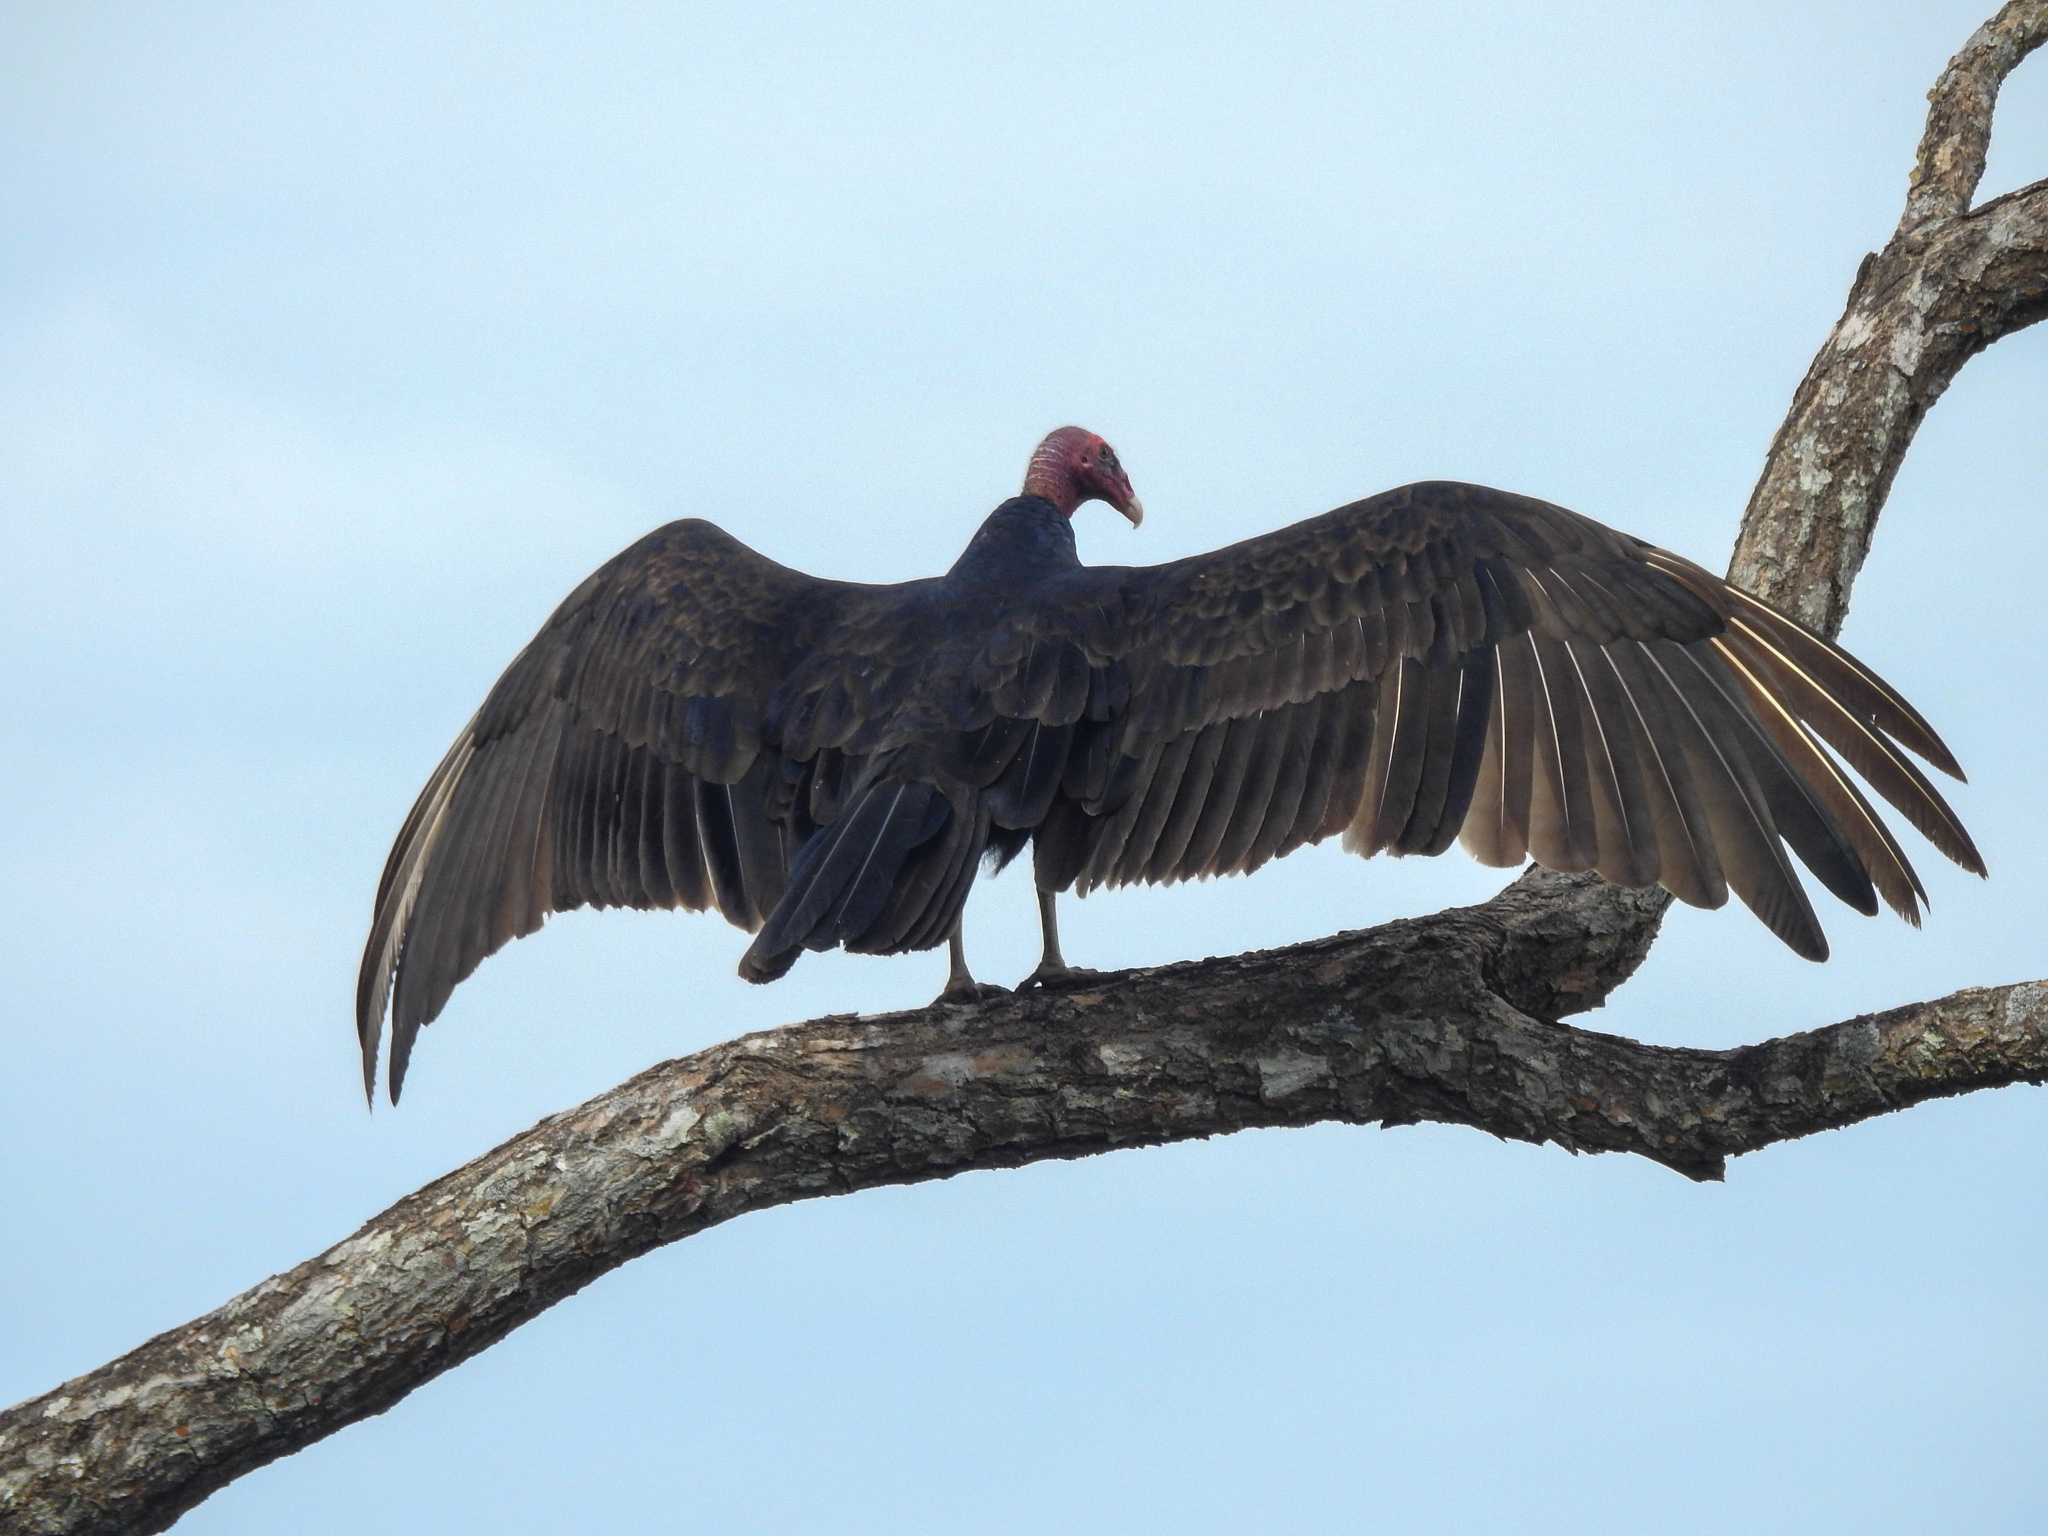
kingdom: Animalia
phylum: Chordata
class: Aves
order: Accipitriformes
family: Cathartidae
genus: Cathartes
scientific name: Cathartes aura
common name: Turkey vulture
